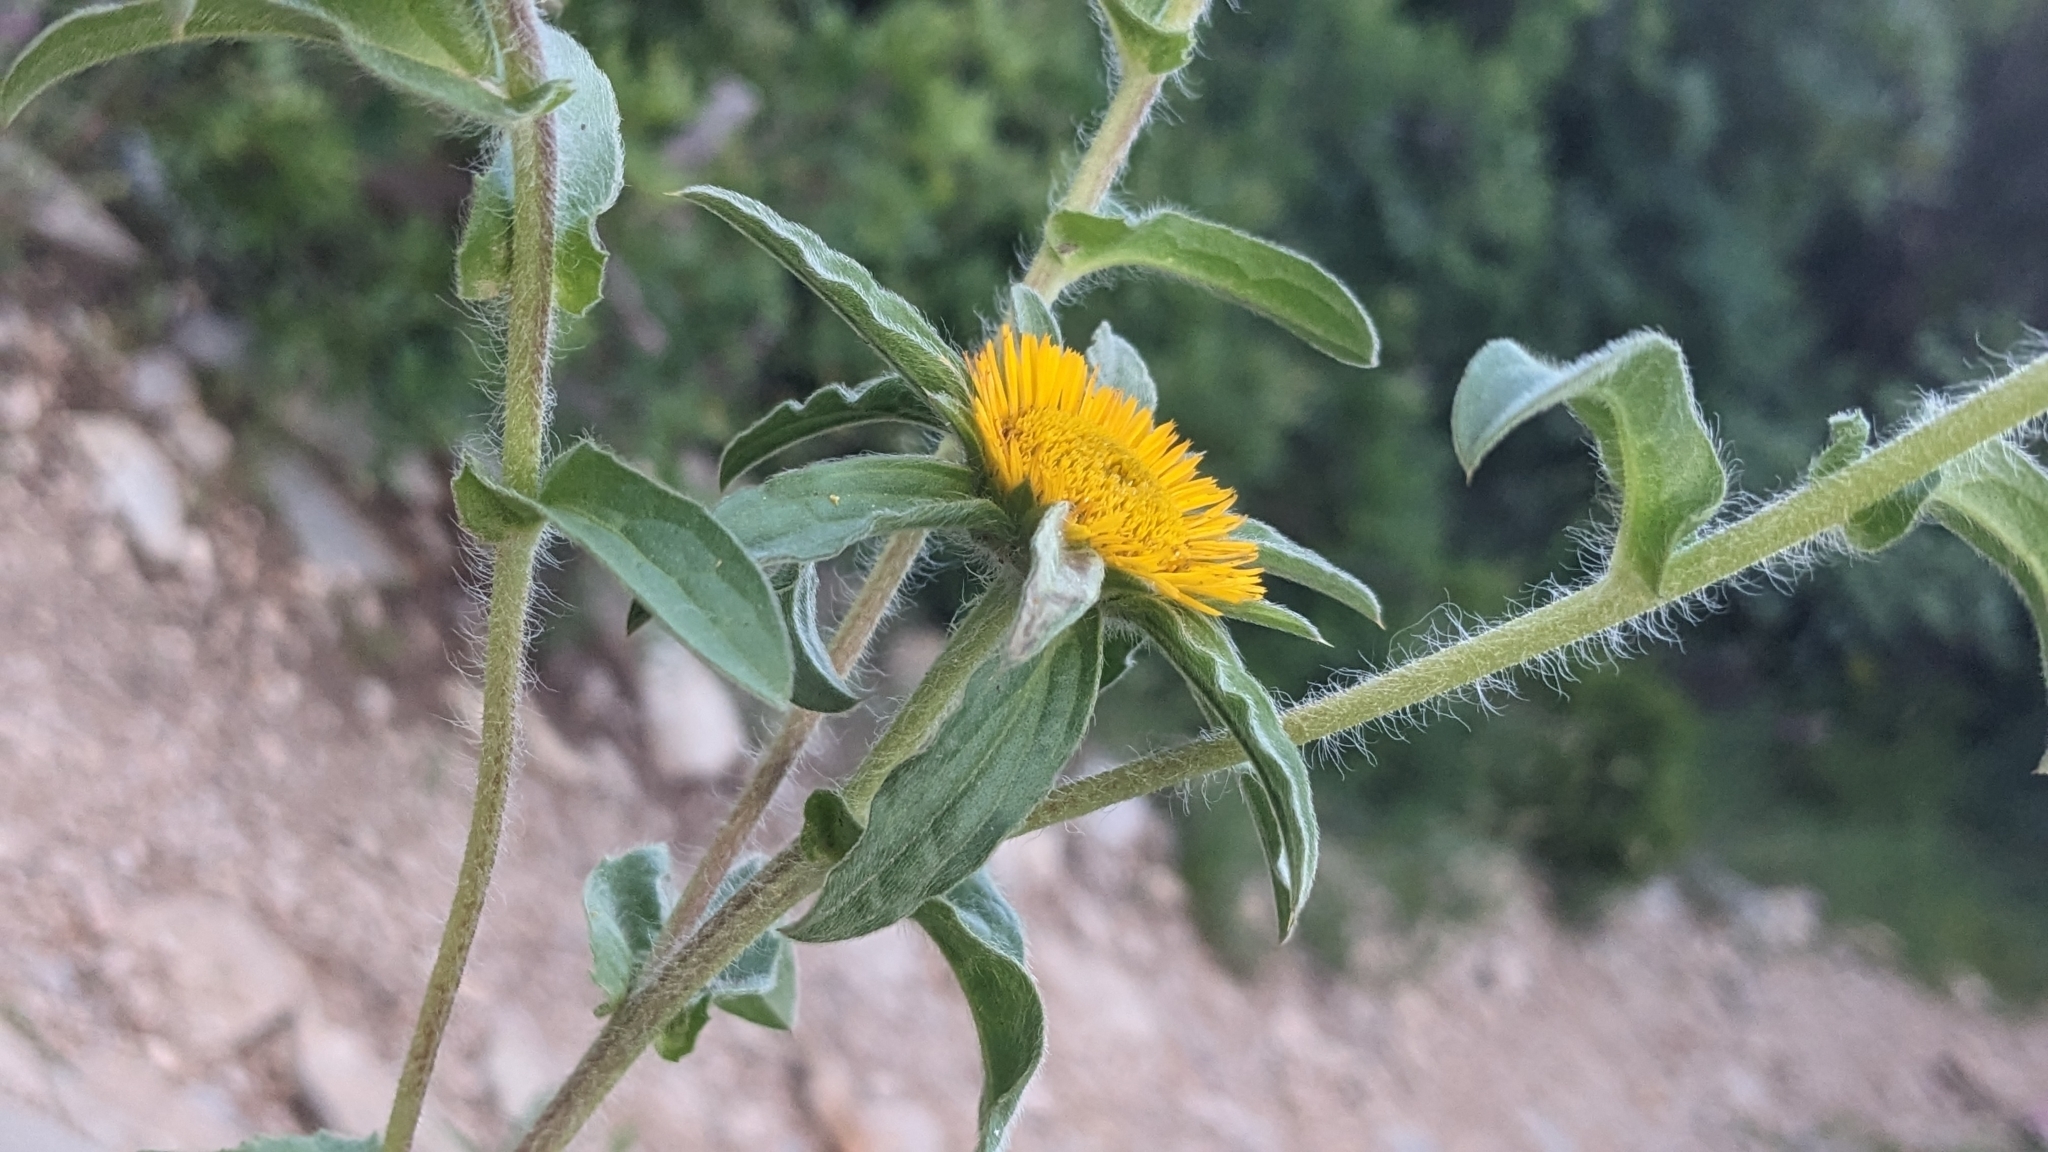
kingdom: Plantae
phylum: Tracheophyta
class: Magnoliopsida
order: Asterales
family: Asteraceae
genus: Pallenis
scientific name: Pallenis spinosa
